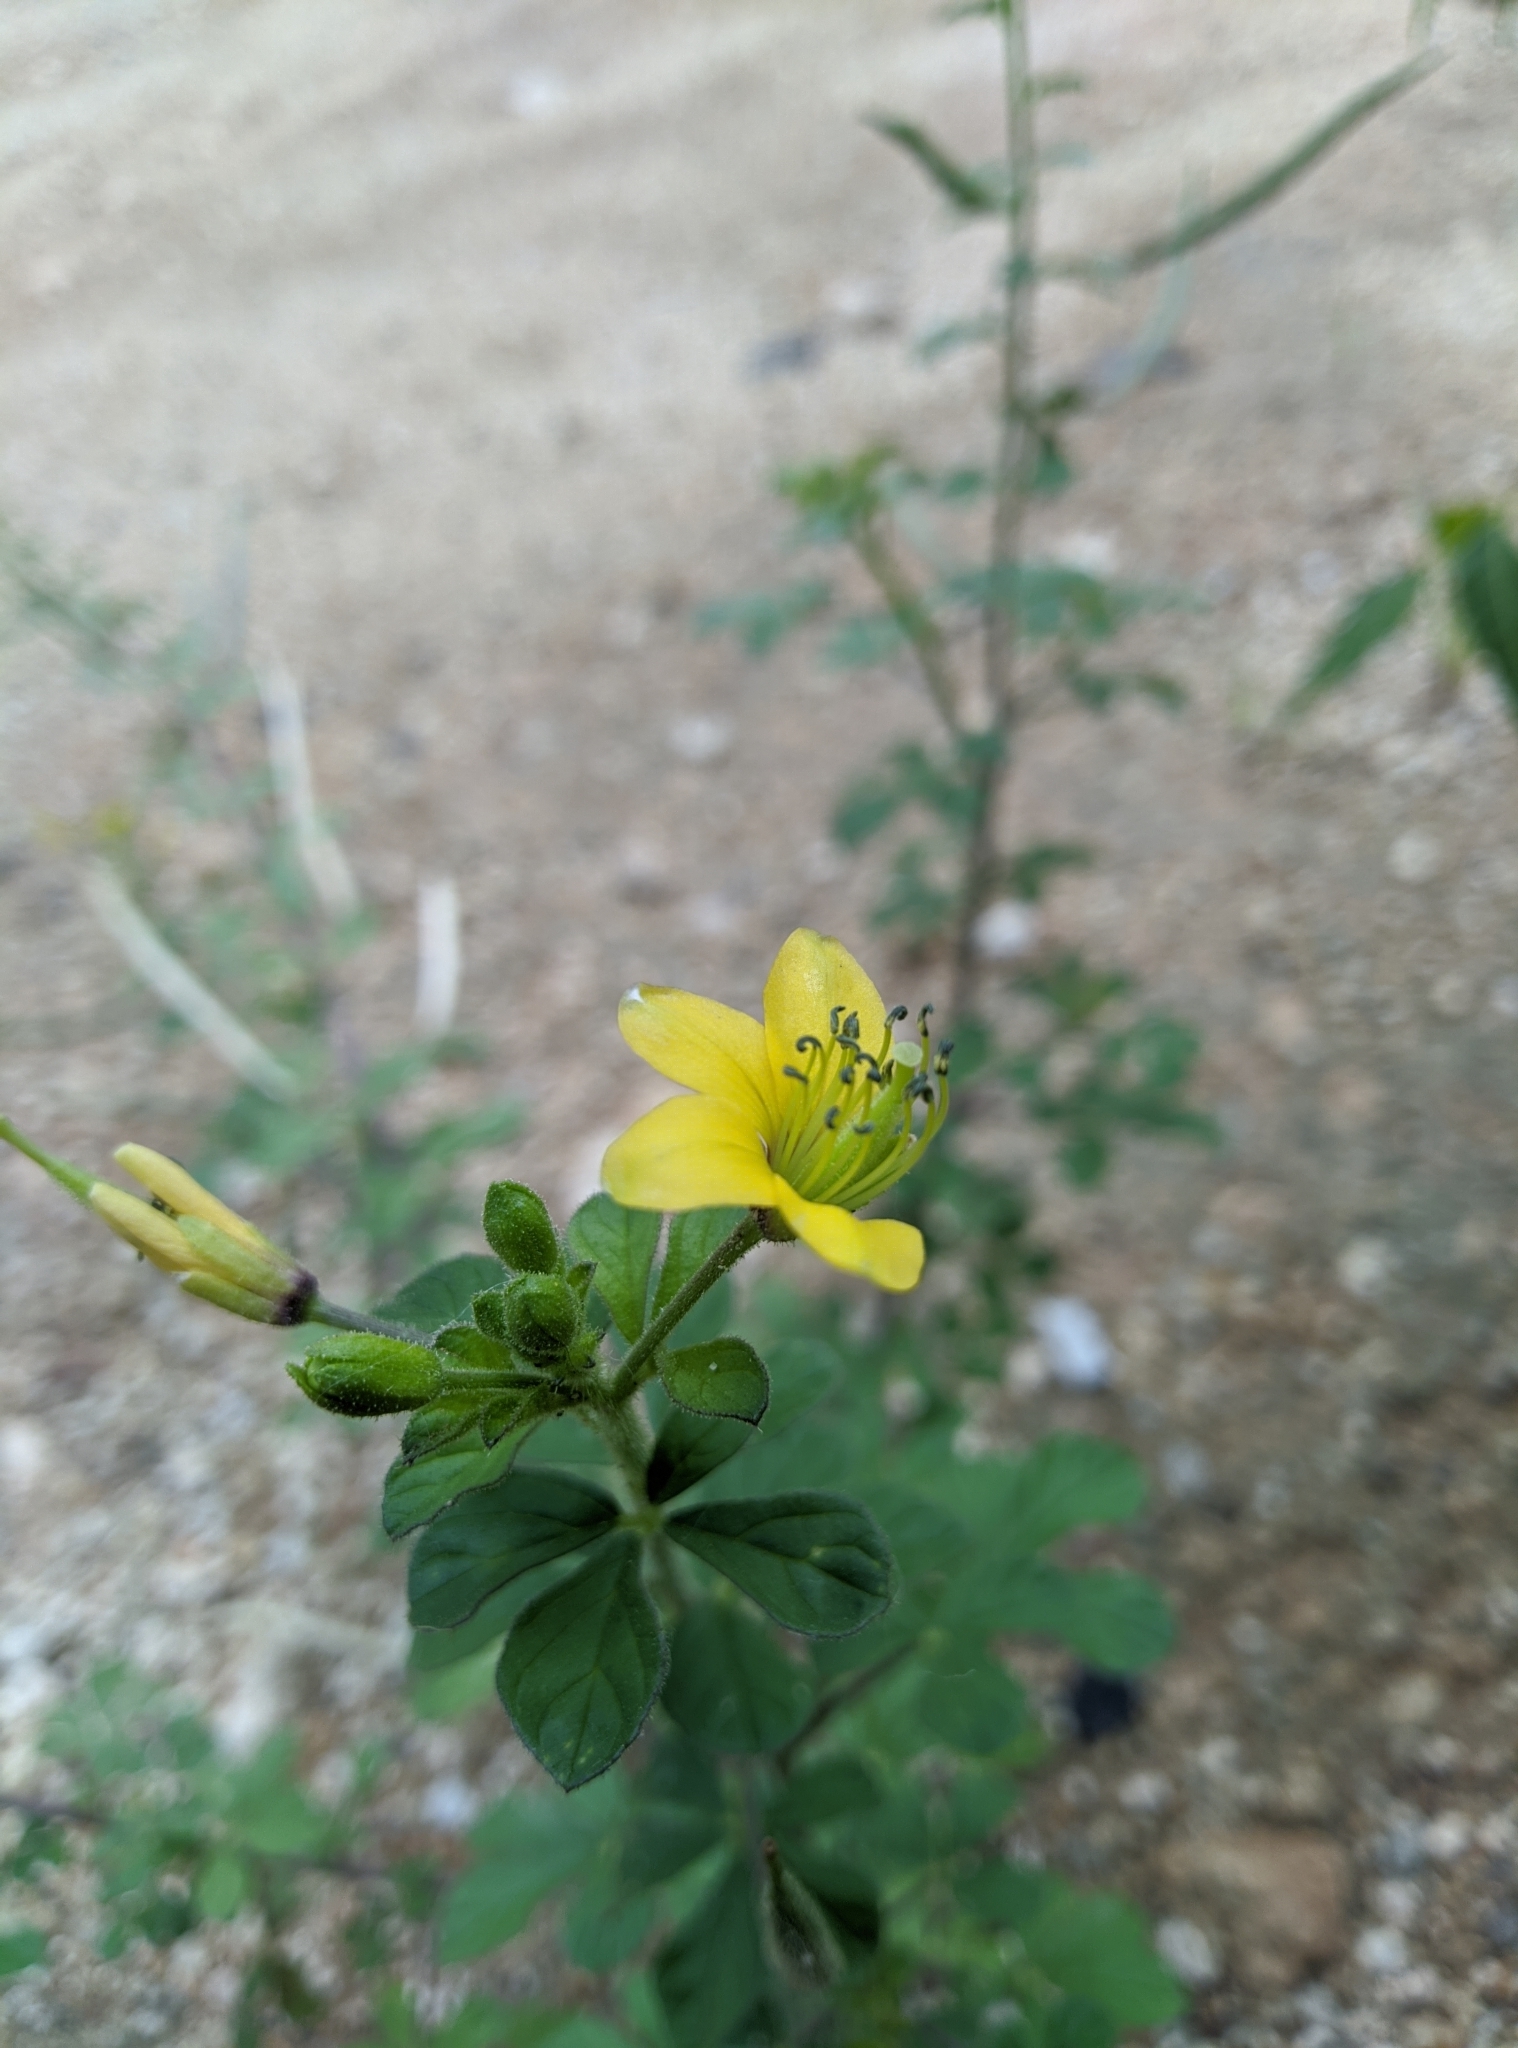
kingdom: Plantae
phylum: Tracheophyta
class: Magnoliopsida
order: Brassicales
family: Cleomaceae
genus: Arivela
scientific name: Arivela viscosa
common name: Asian spiderflower
